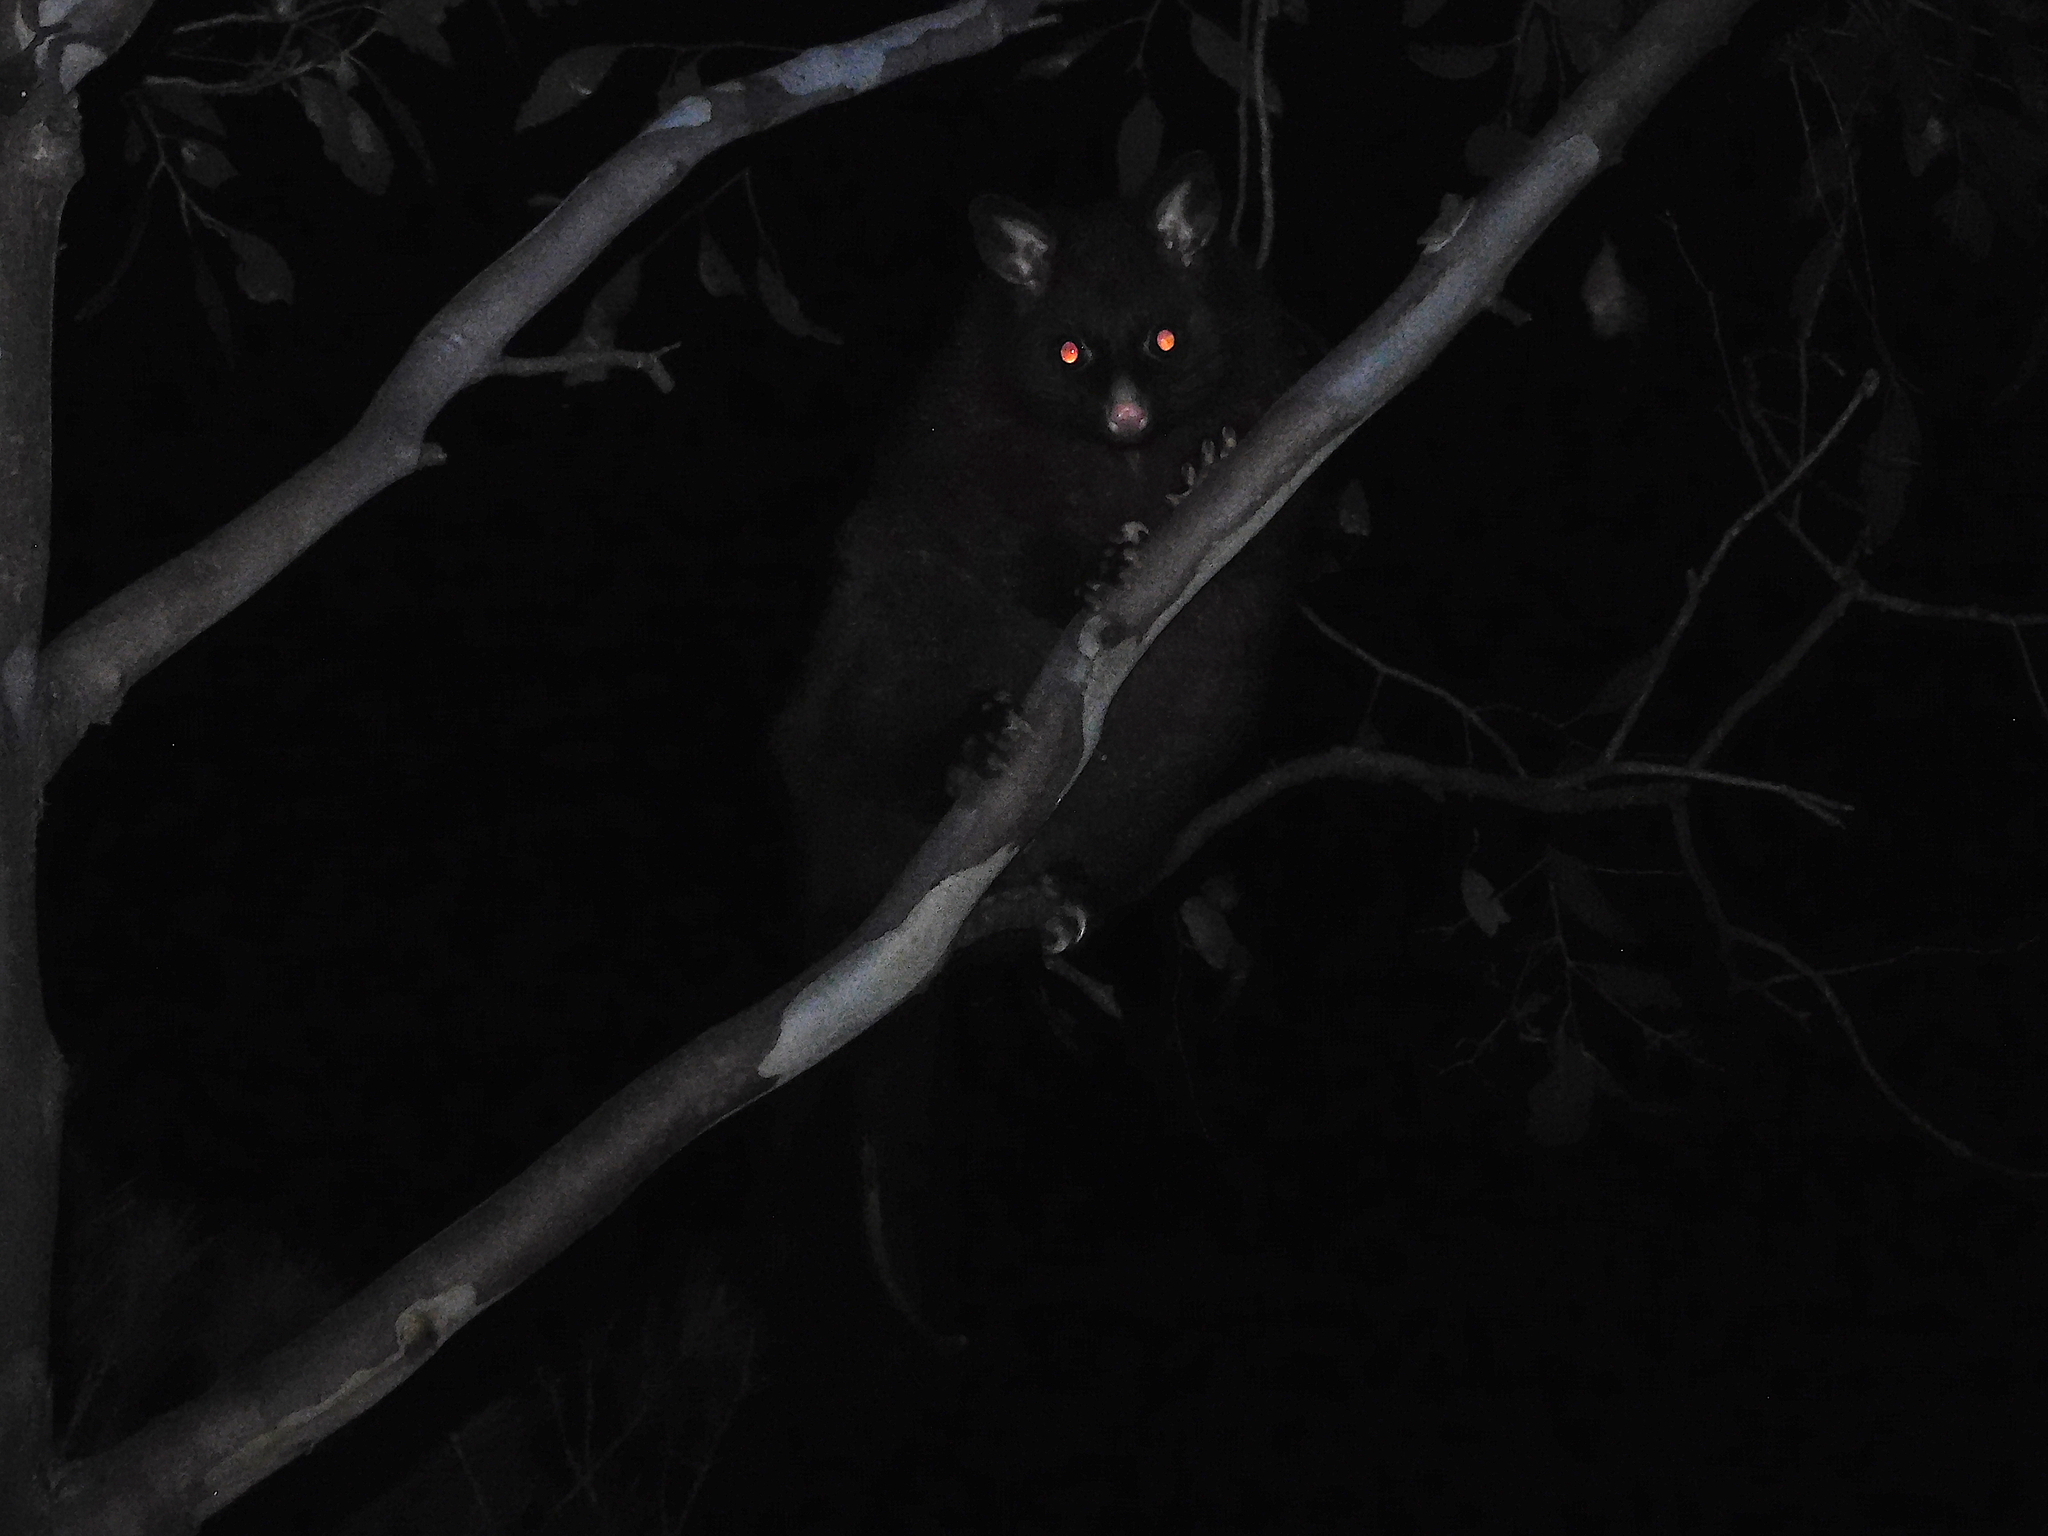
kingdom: Animalia
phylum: Chordata
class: Mammalia
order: Diprotodontia
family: Phalangeridae
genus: Trichosurus
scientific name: Trichosurus vulpecula
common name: Common brushtail
